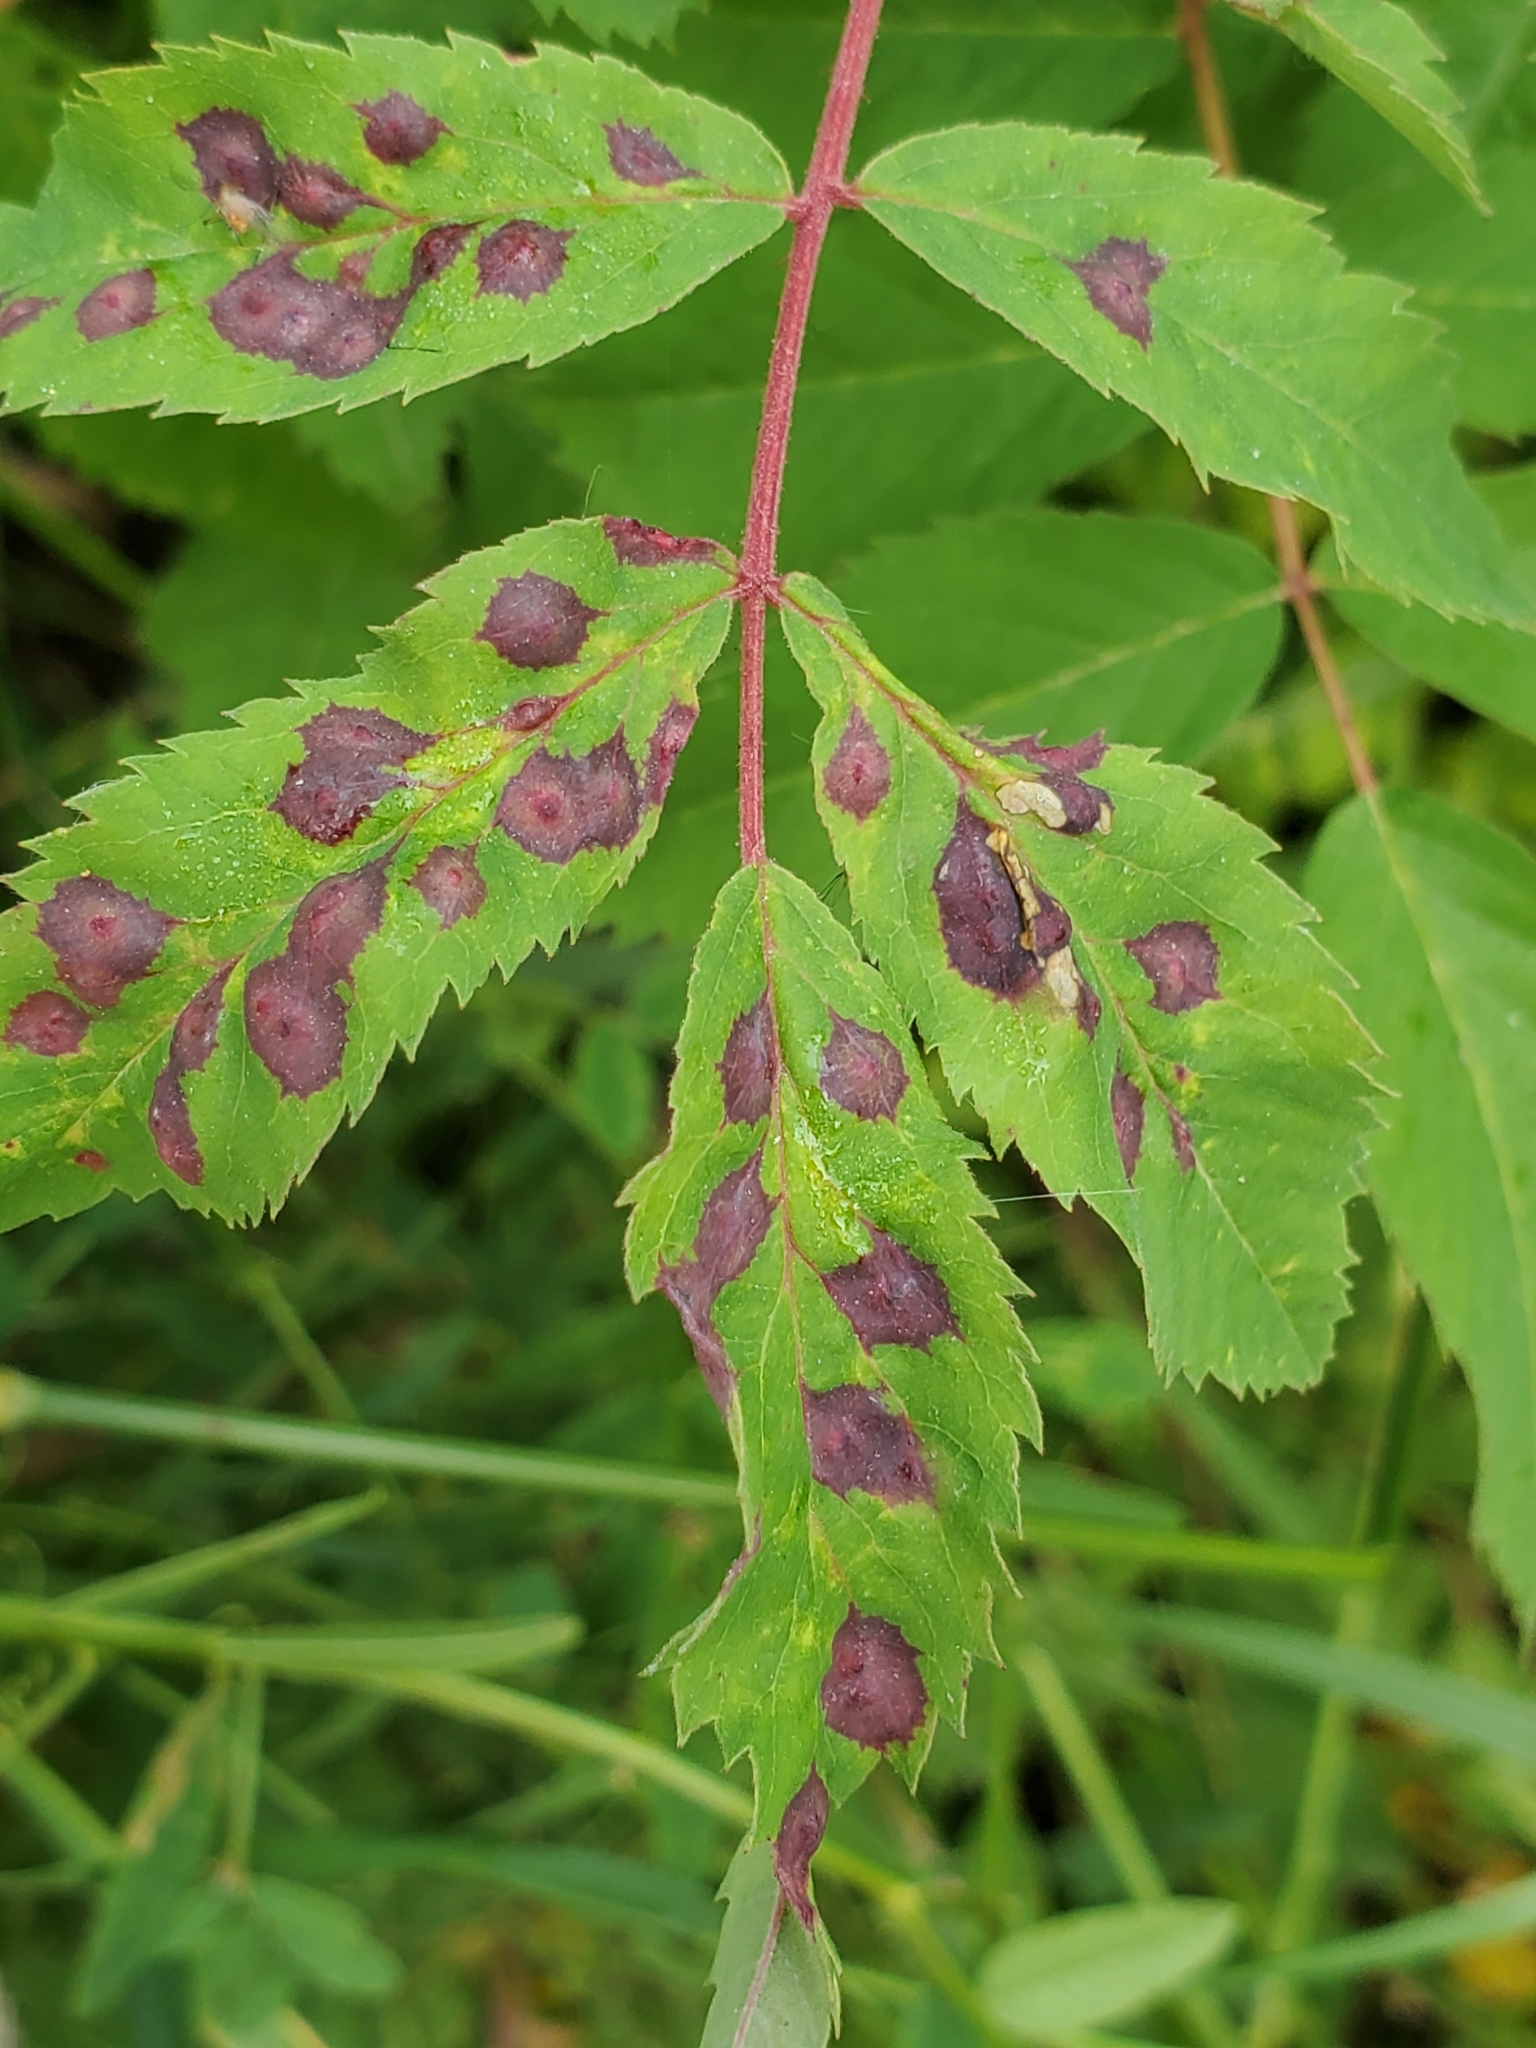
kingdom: Animalia
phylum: Arthropoda
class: Insecta
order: Hymenoptera
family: Cynipidae
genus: Diplolepis
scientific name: Diplolepis rosaefolii
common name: Blister-gall wasp
